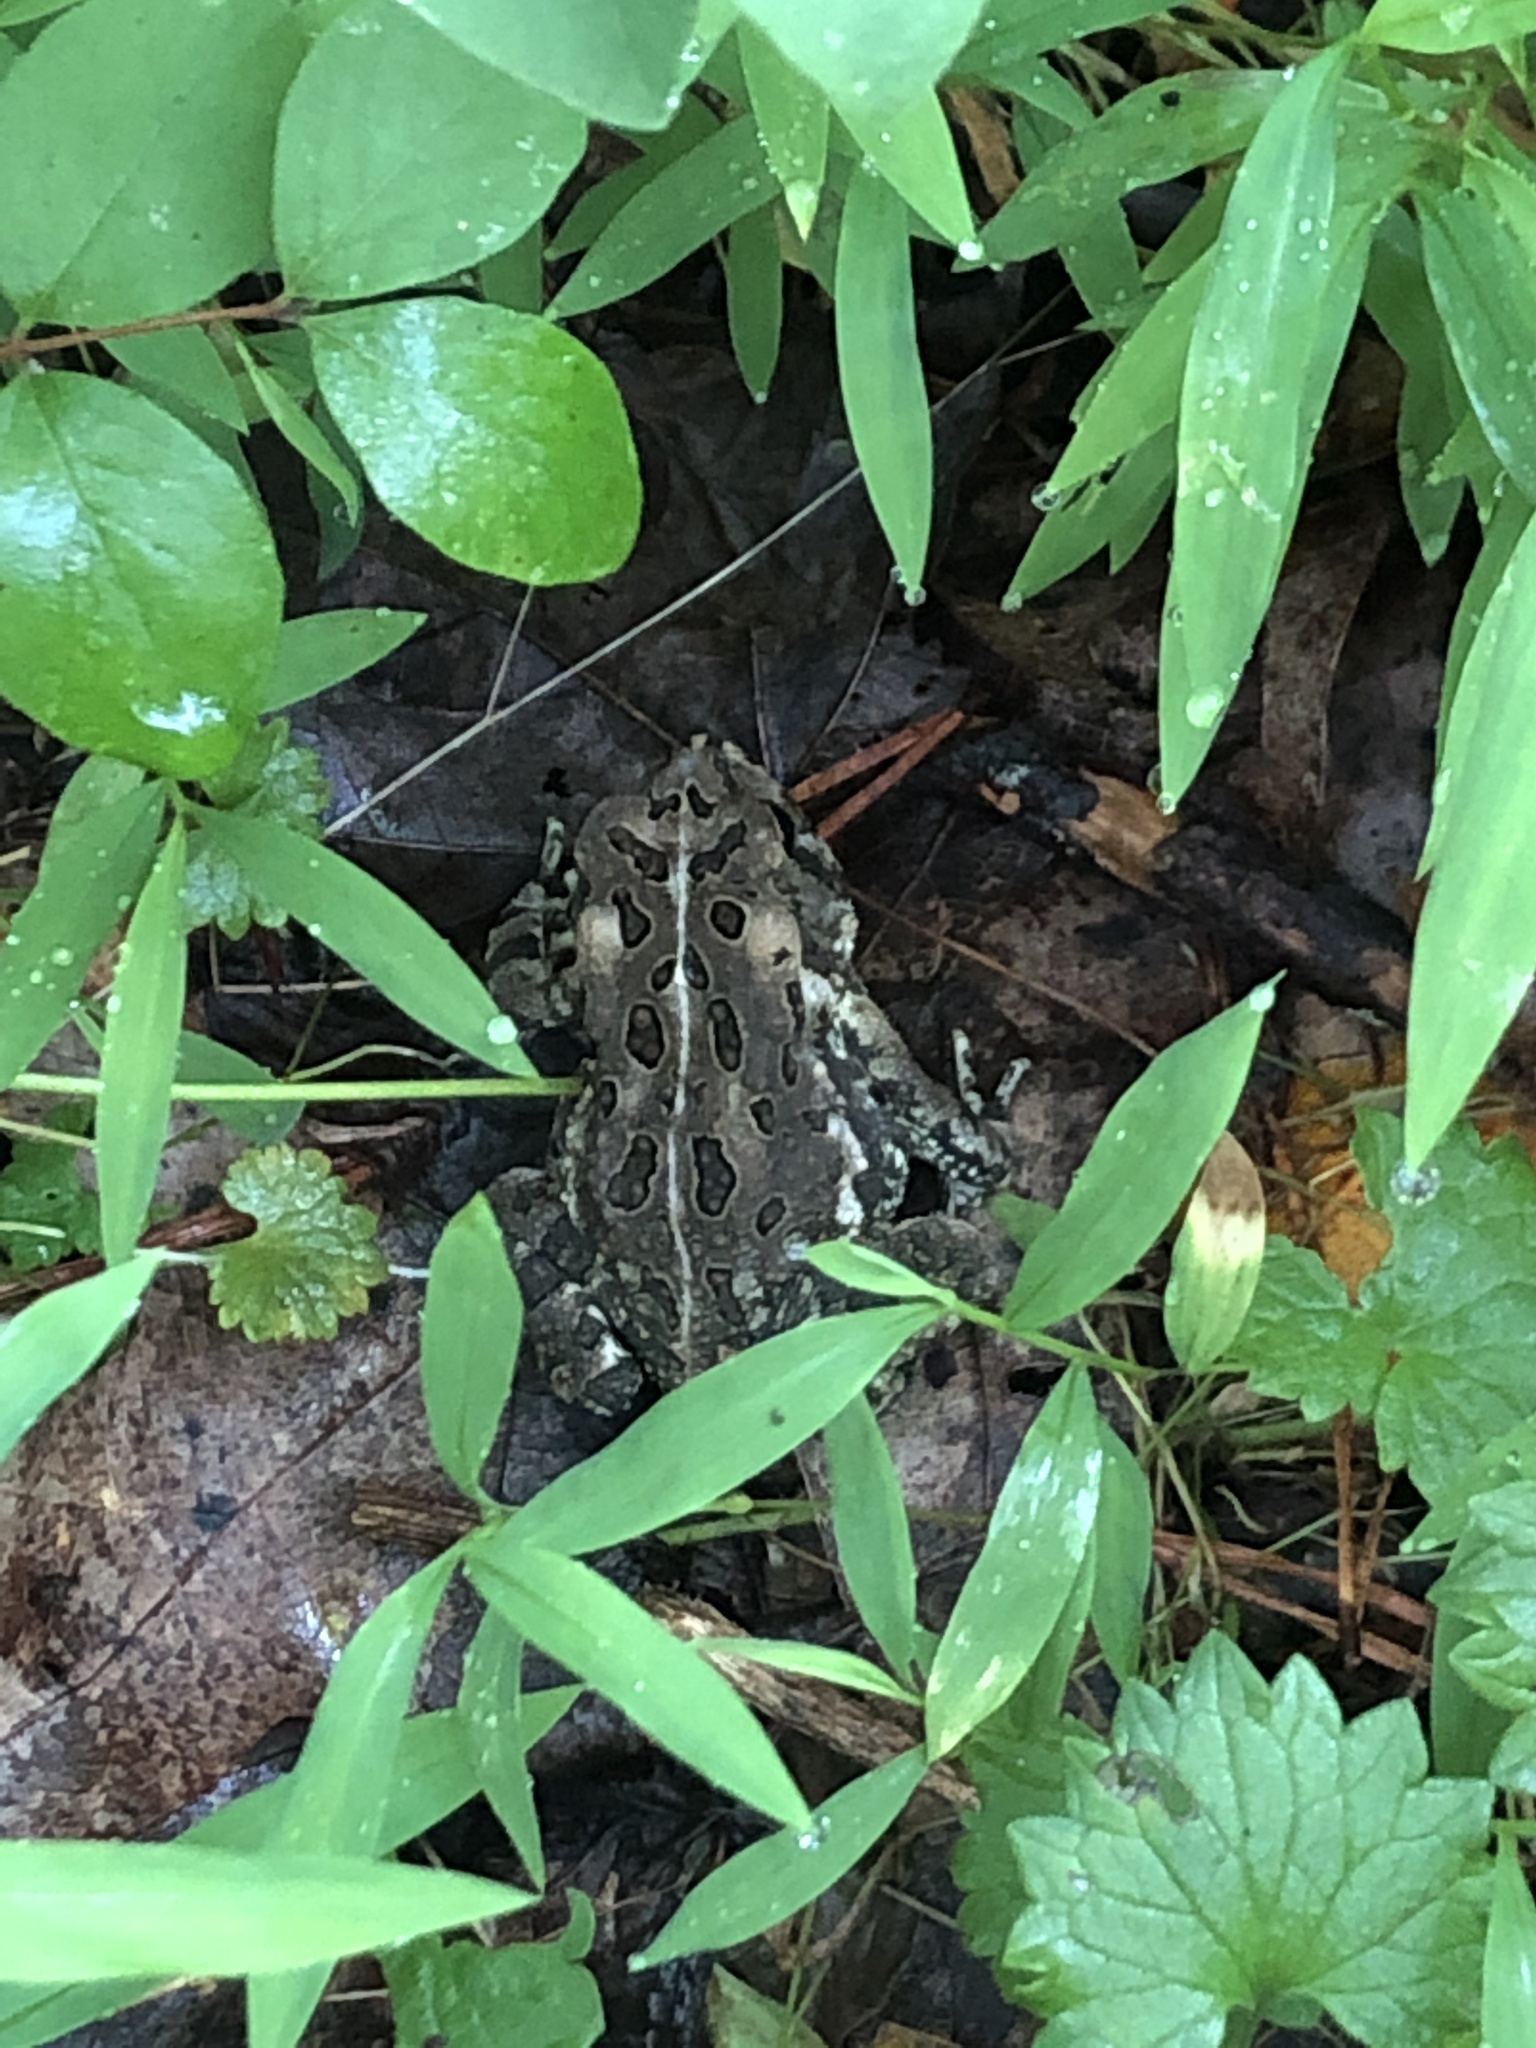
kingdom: Animalia
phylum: Chordata
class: Amphibia
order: Anura
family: Bufonidae
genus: Anaxyrus
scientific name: Anaxyrus fowleri
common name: Fowler's toad
